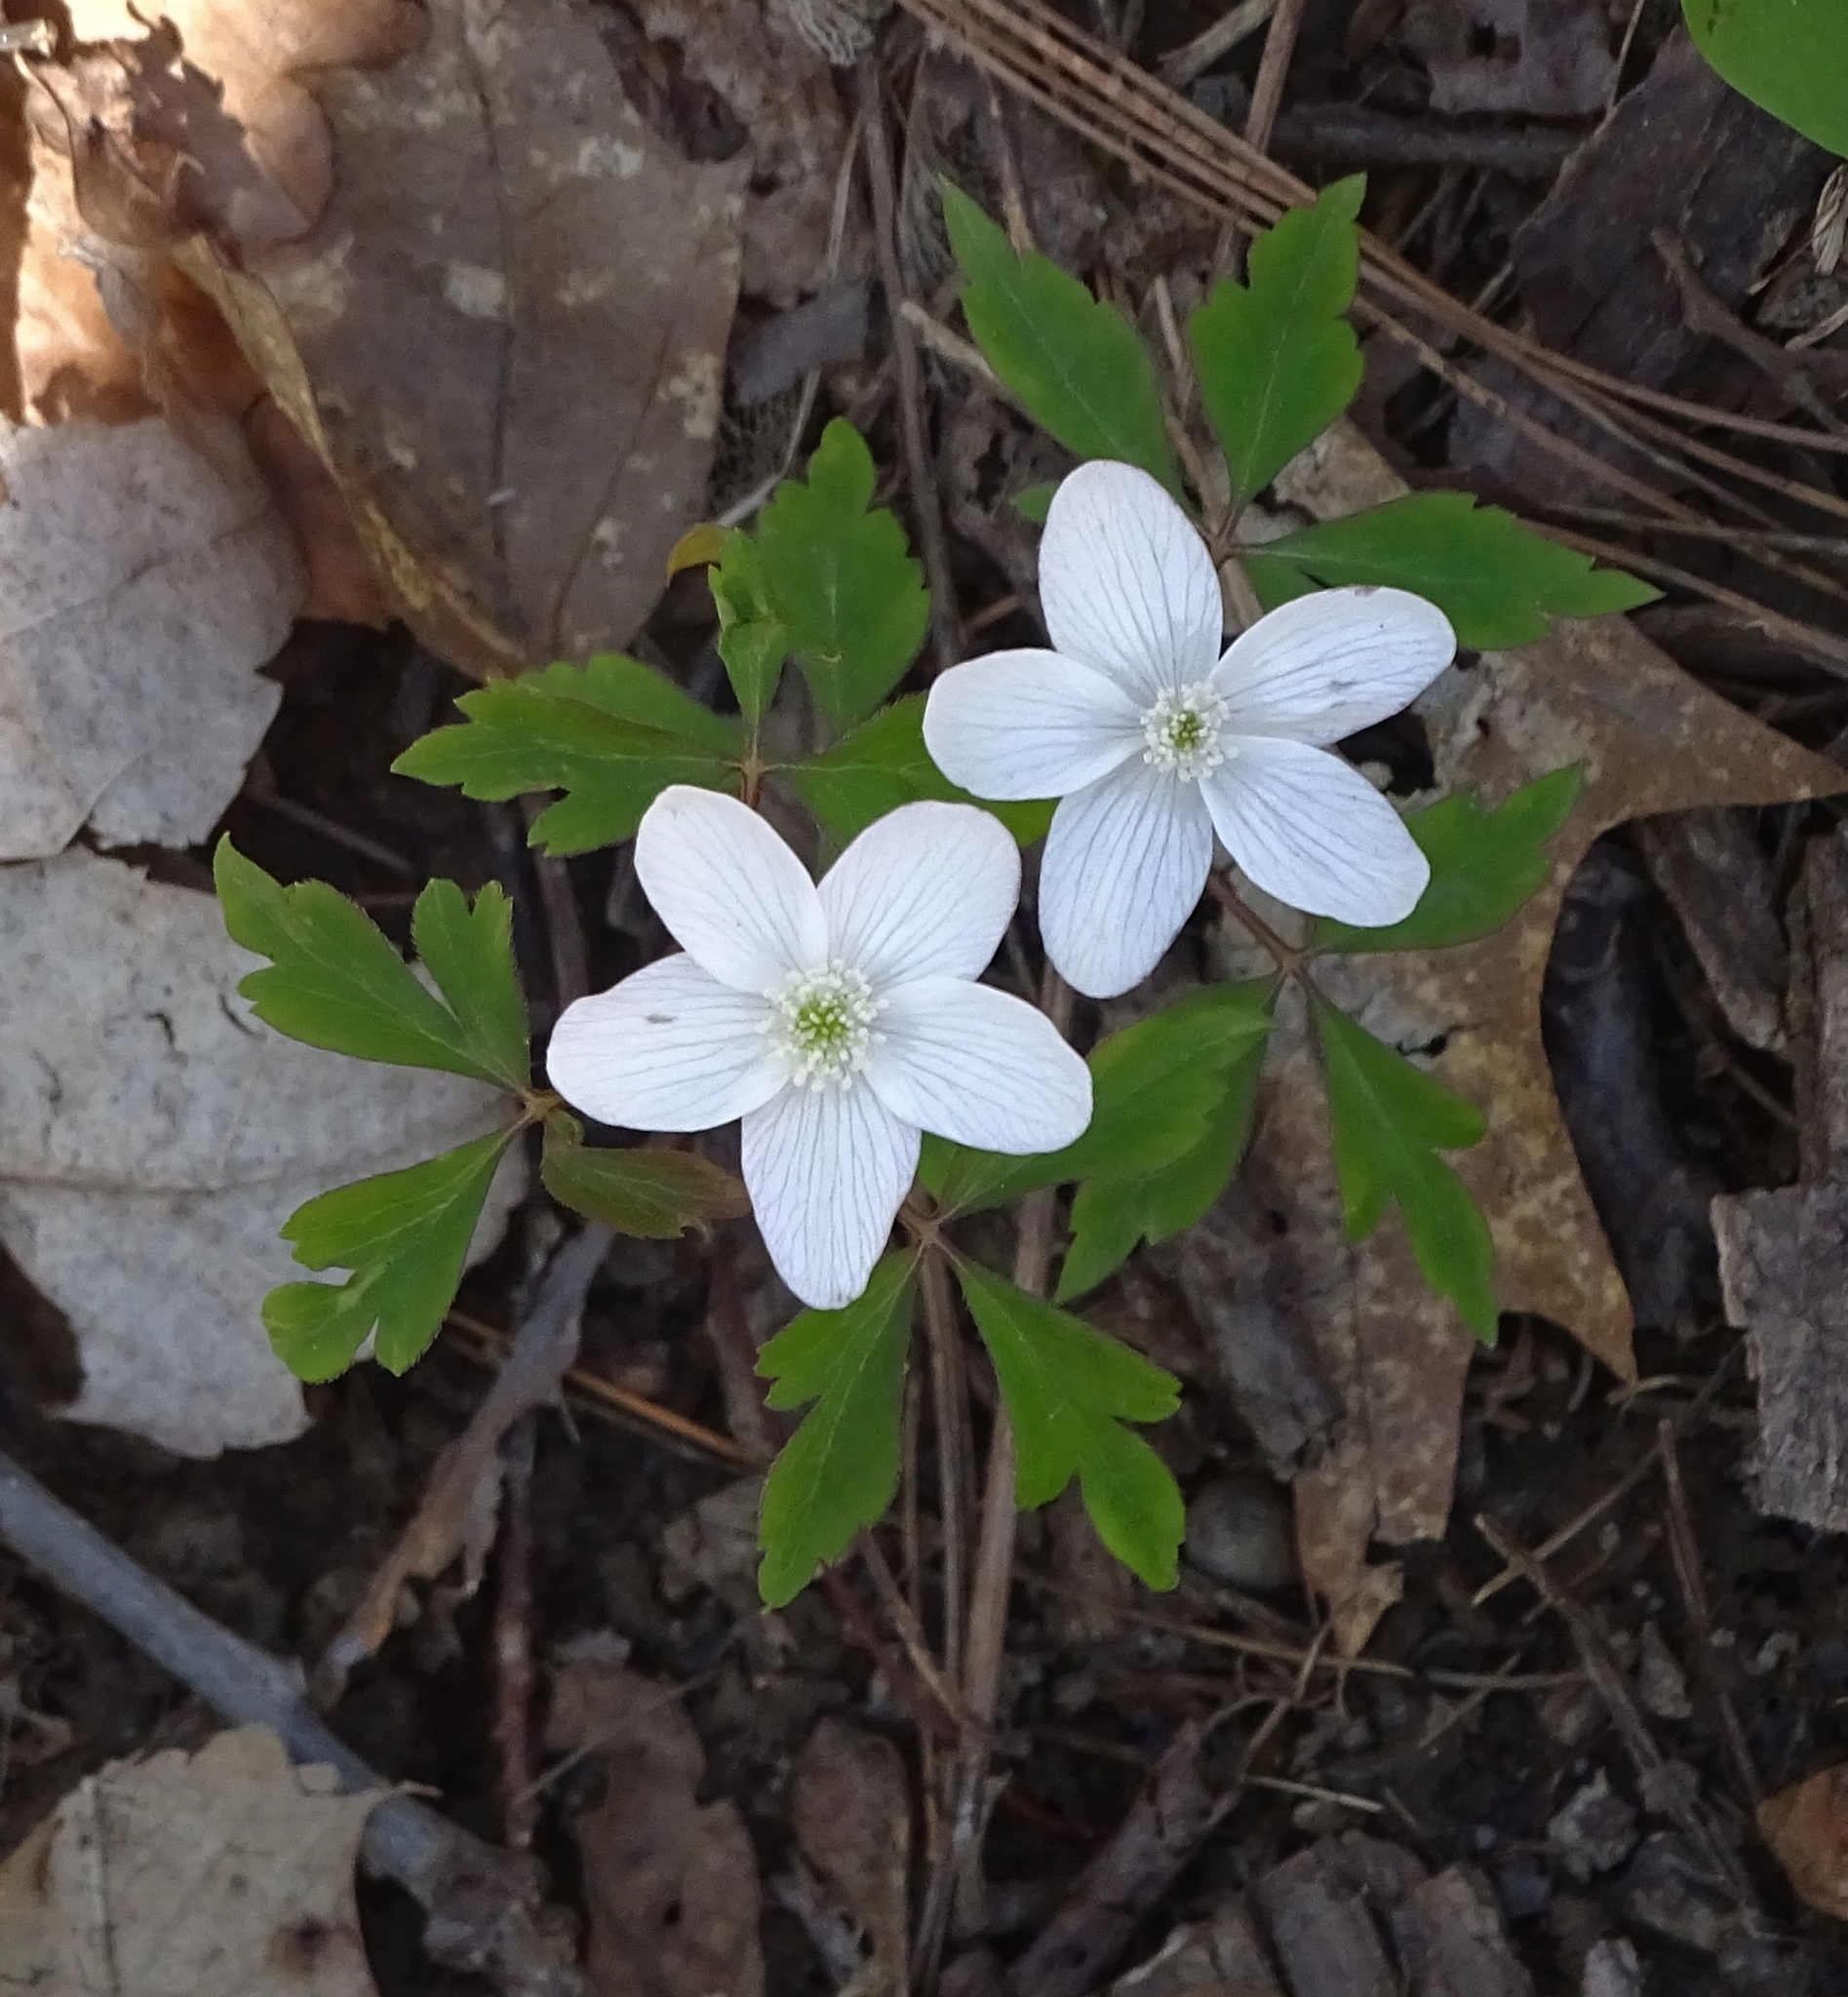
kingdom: Plantae
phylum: Tracheophyta
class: Magnoliopsida
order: Ranunculales
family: Ranunculaceae
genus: Anemone
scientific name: Anemone quinquefolia
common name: Wood anemone
